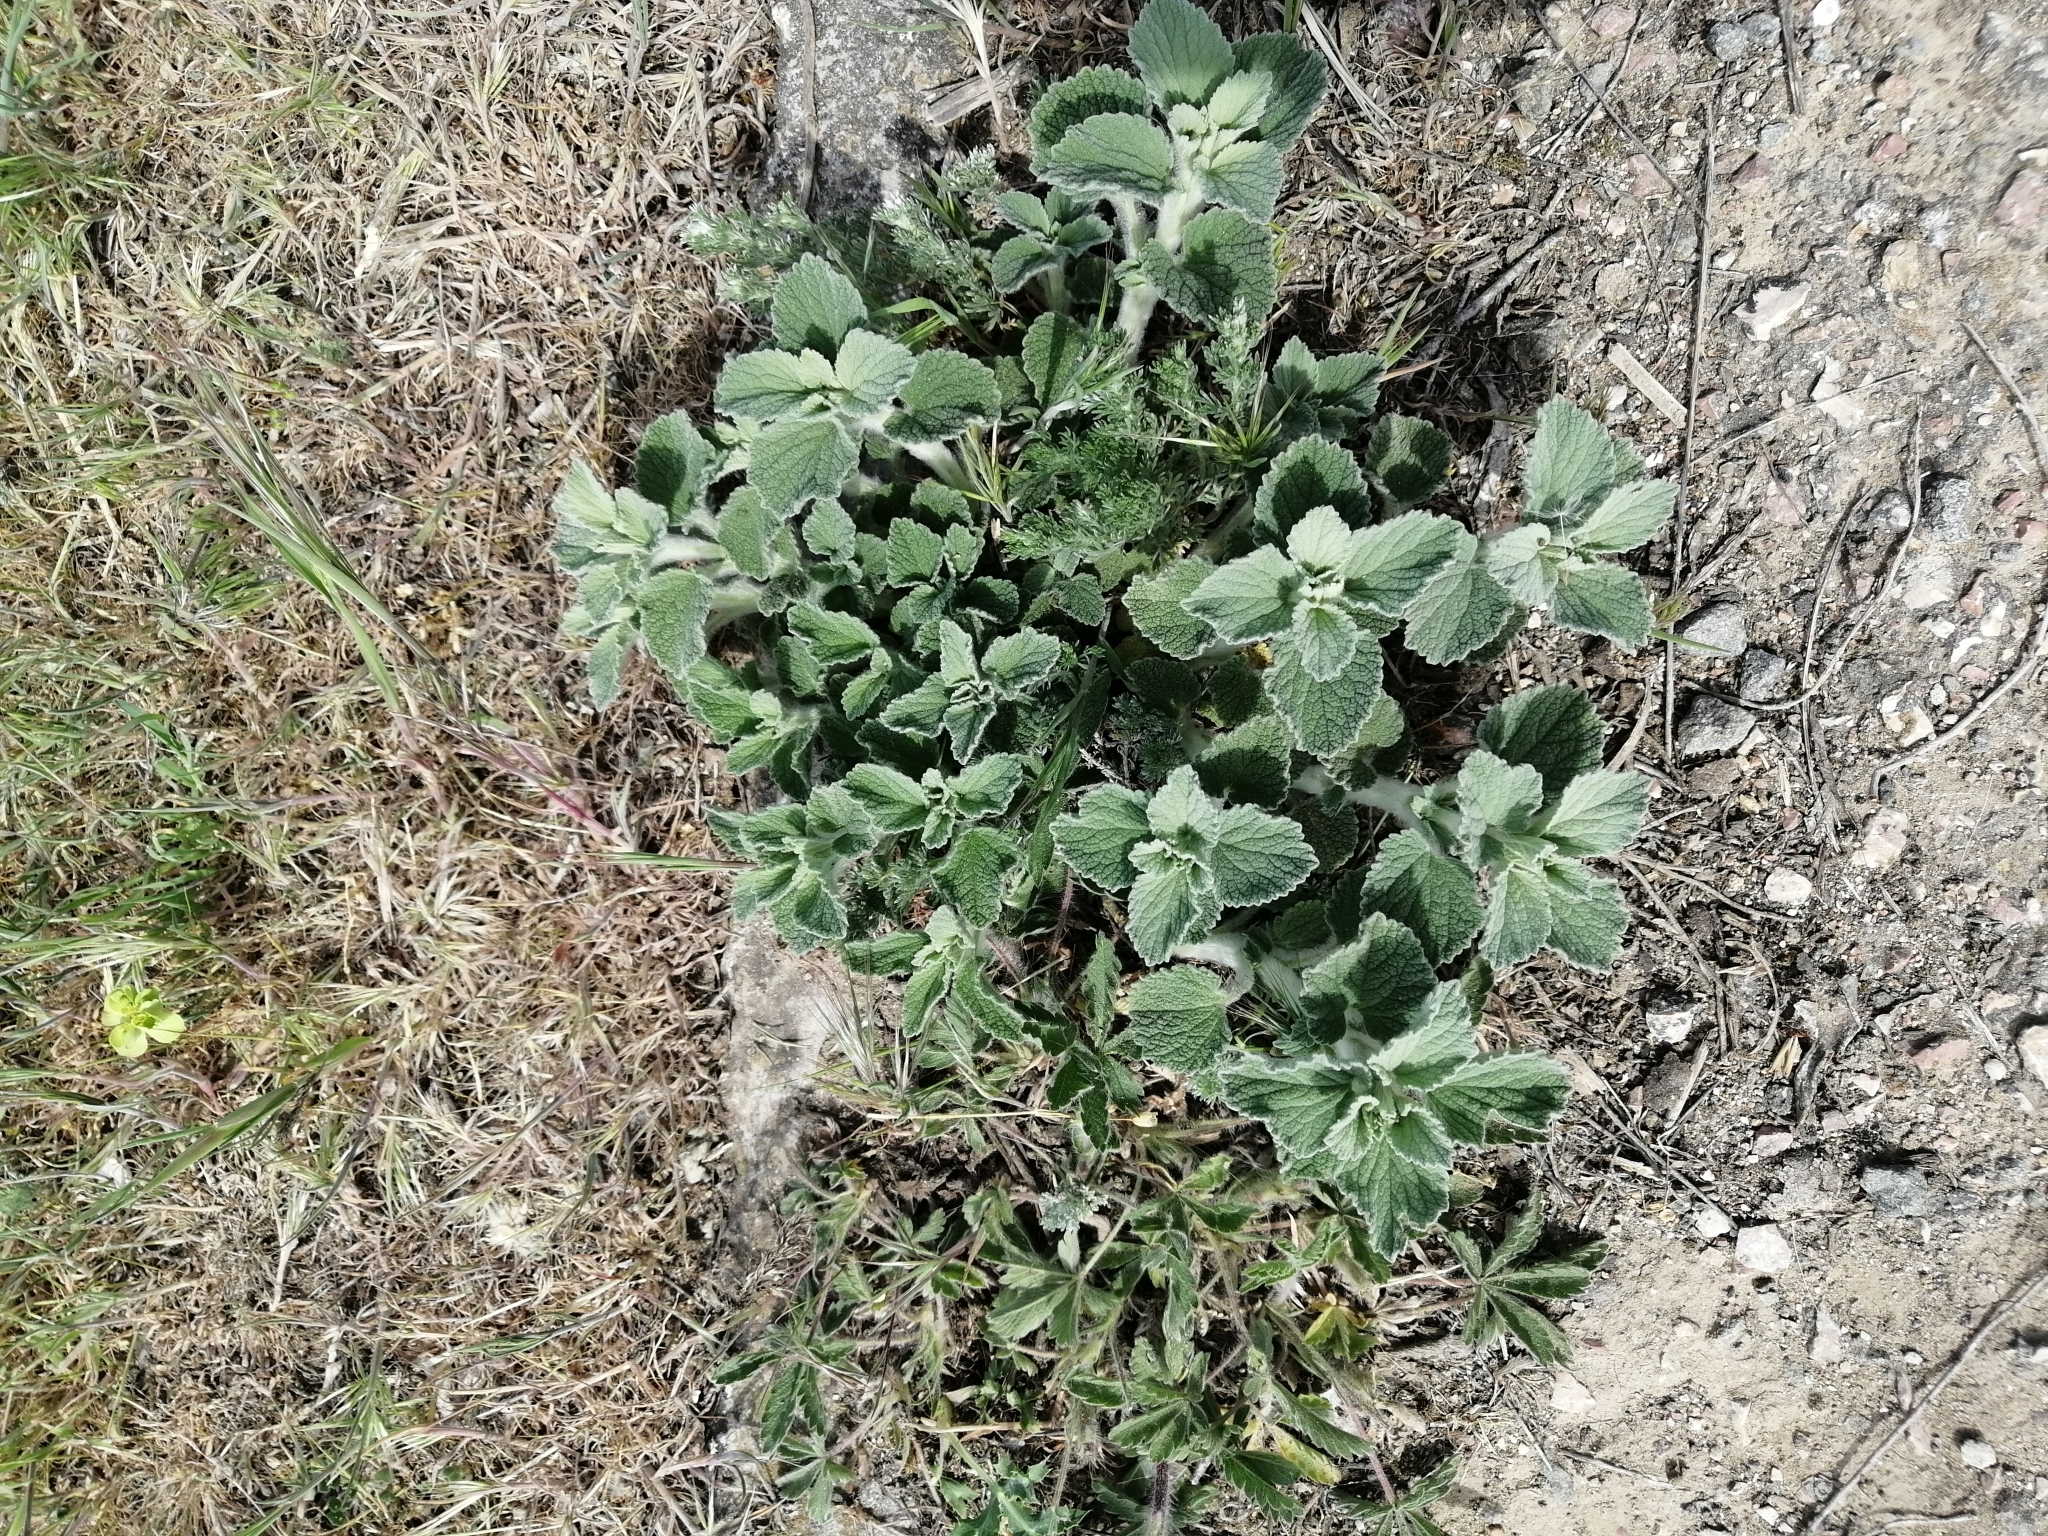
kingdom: Plantae
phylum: Tracheophyta
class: Magnoliopsida
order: Lamiales
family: Lamiaceae
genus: Marrubium
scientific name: Marrubium peregrinum
